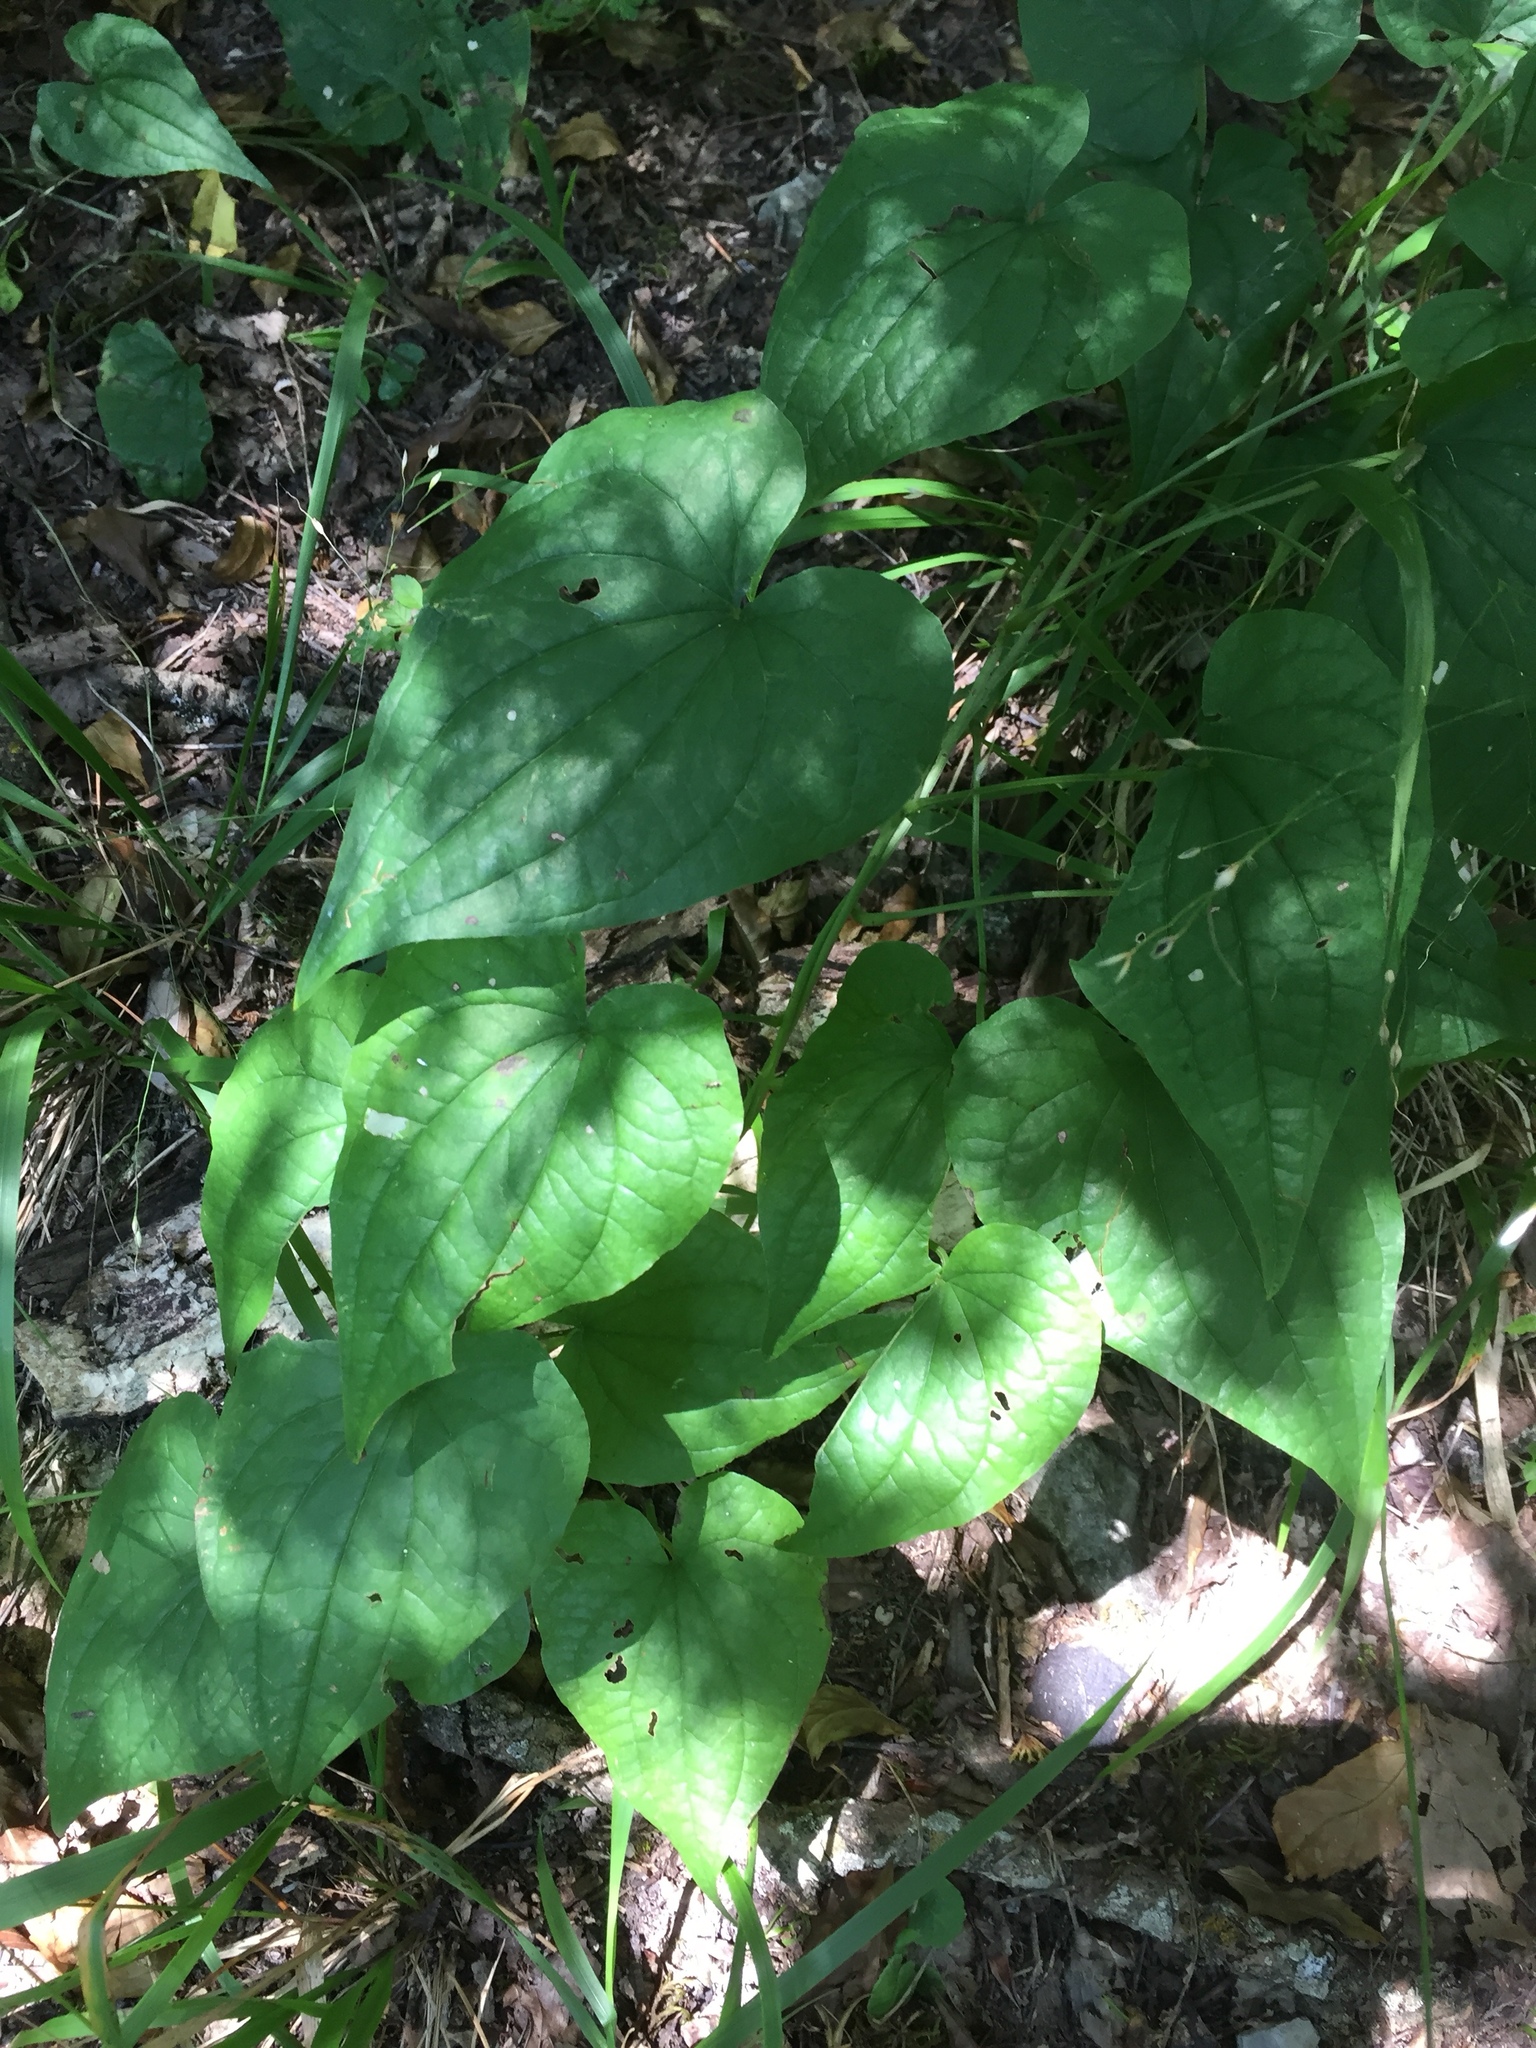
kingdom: Plantae
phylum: Tracheophyta
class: Liliopsida
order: Dioscoreales
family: Dioscoreaceae
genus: Dioscorea
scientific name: Dioscorea communis
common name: Black-bindweed
